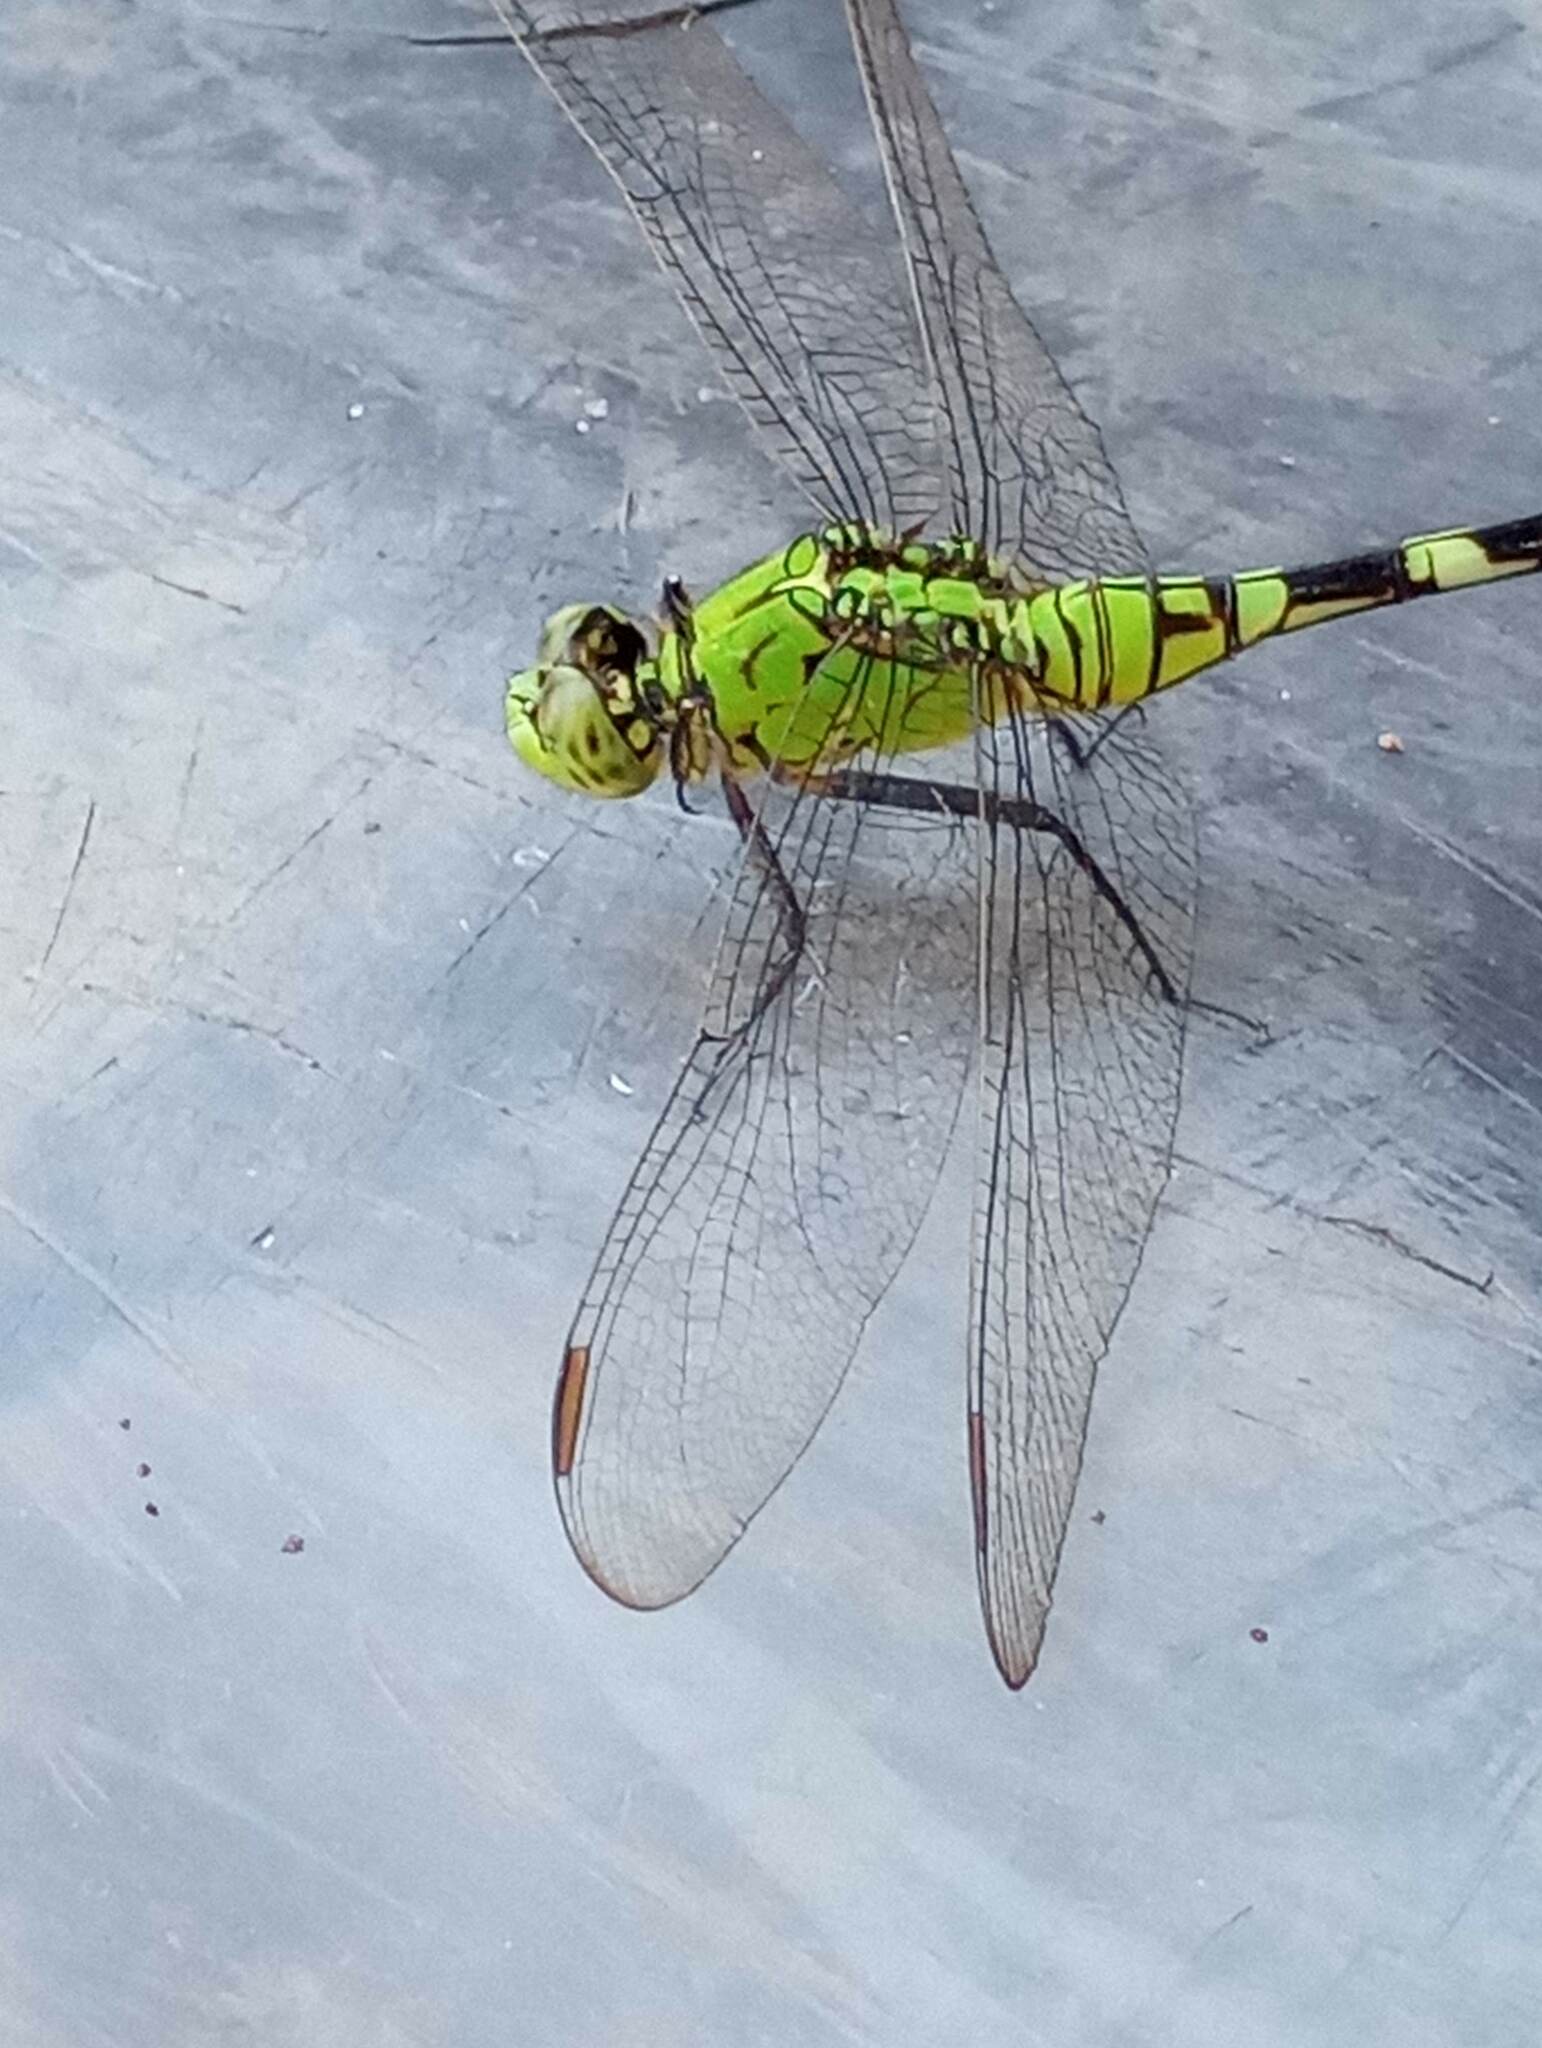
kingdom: Animalia
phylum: Arthropoda
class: Insecta
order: Odonata
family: Libellulidae
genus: Erythemis
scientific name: Erythemis simplicicollis
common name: Eastern pondhawk
